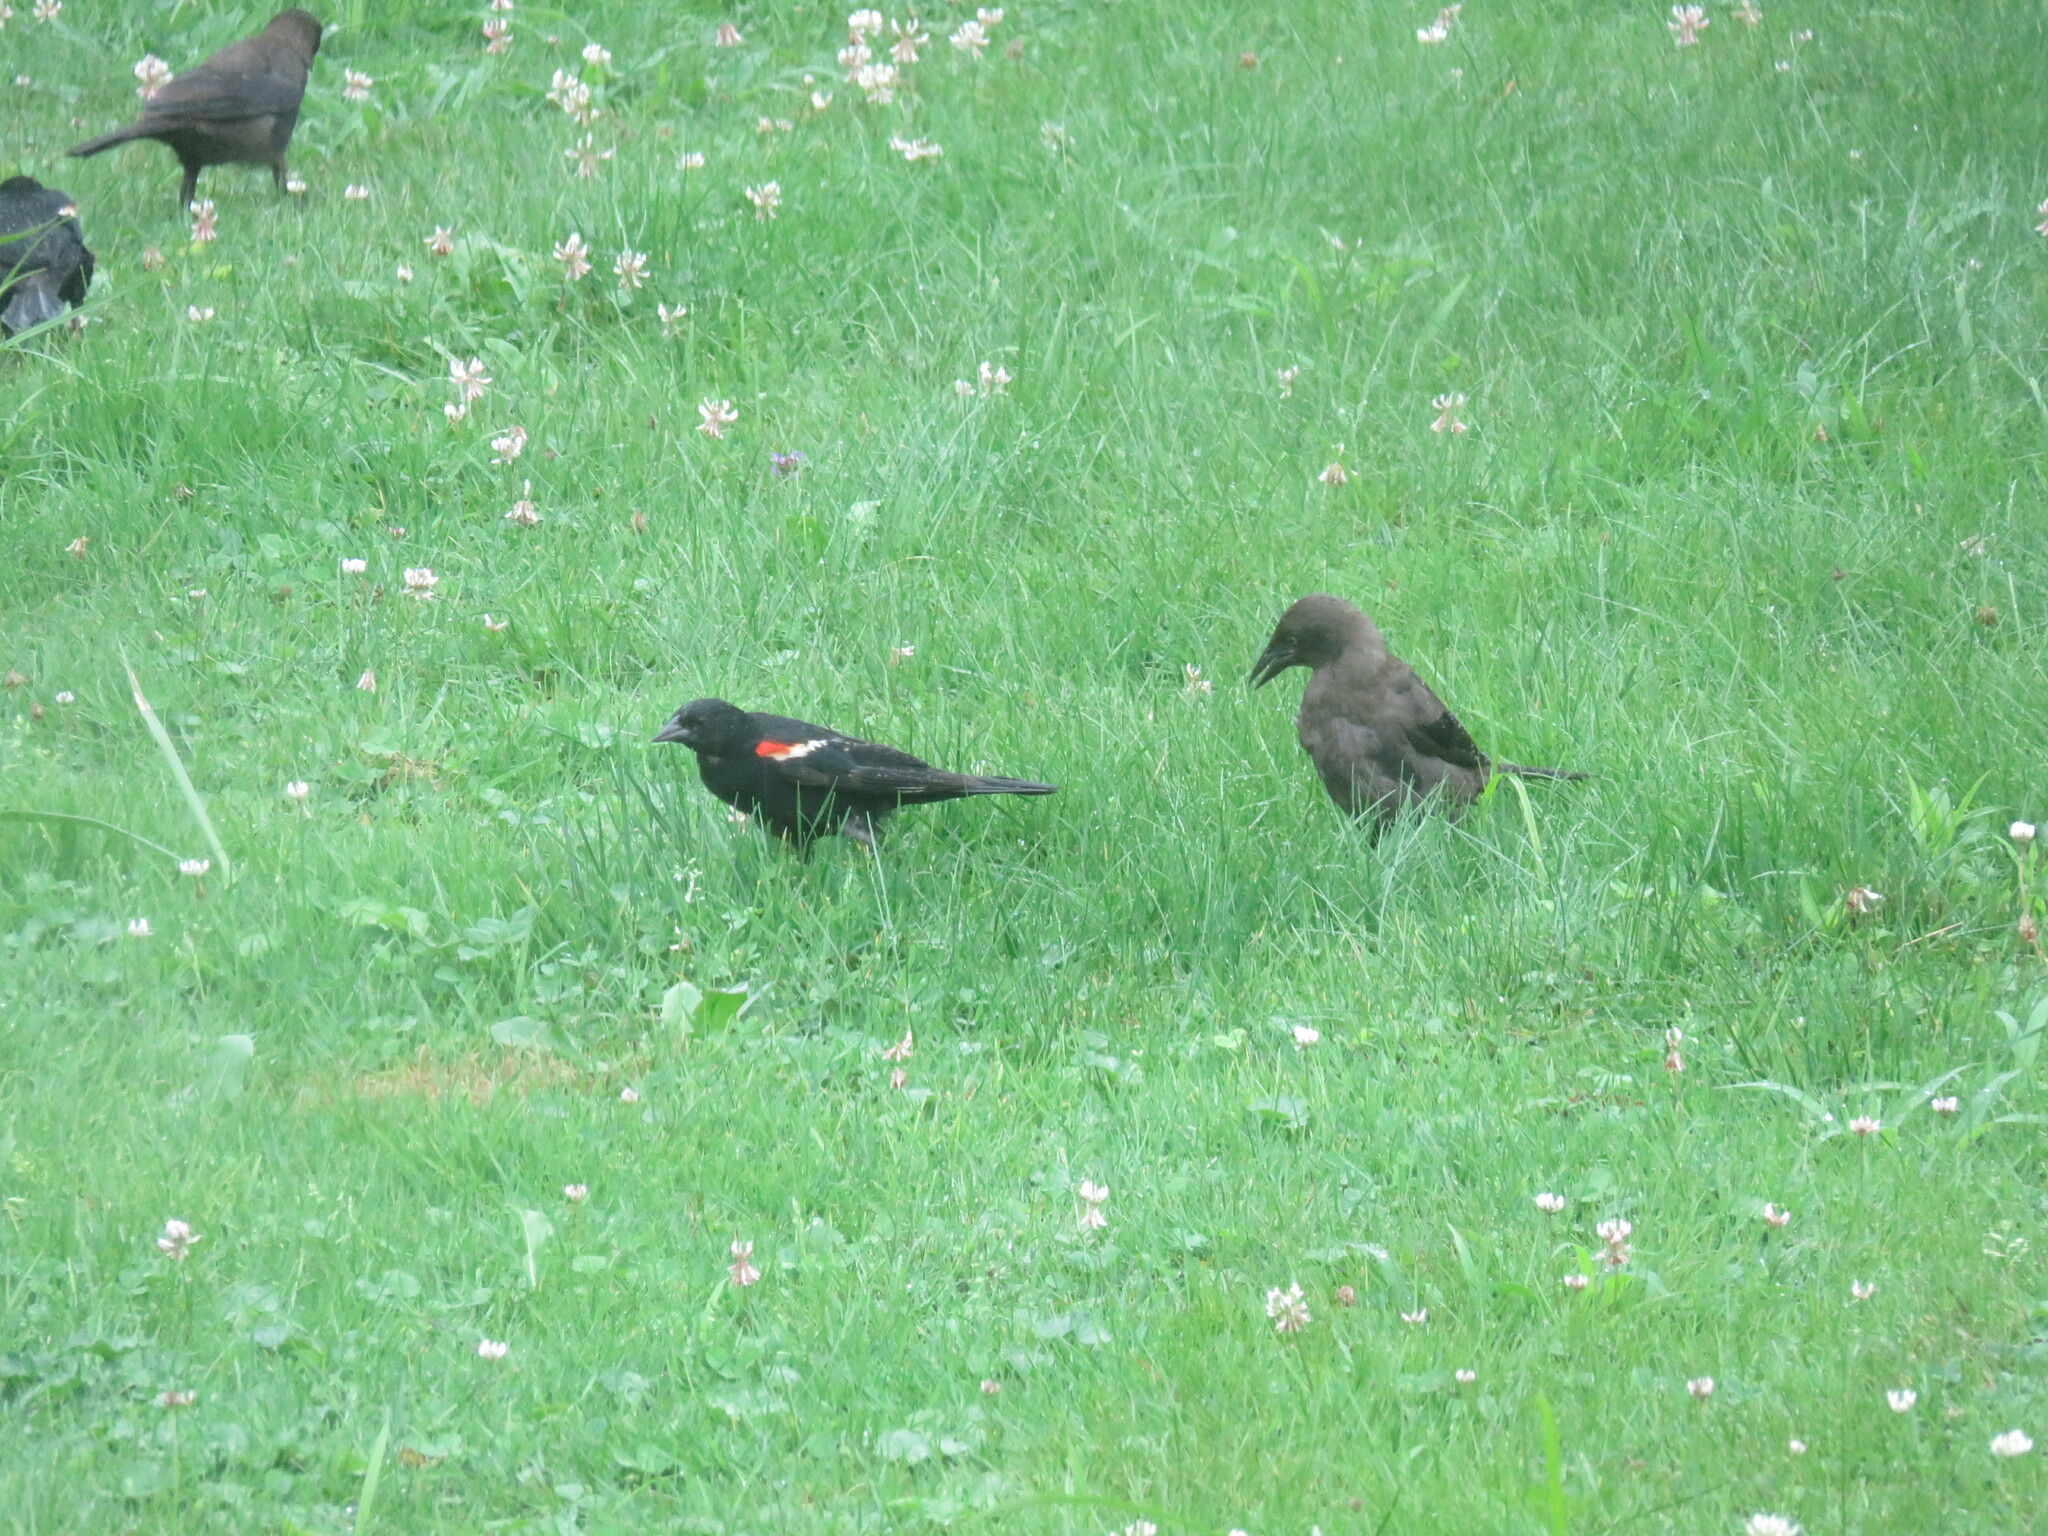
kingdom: Animalia
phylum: Chordata
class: Aves
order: Passeriformes
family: Icteridae
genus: Agelaius
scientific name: Agelaius phoeniceus
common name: Red-winged blackbird
